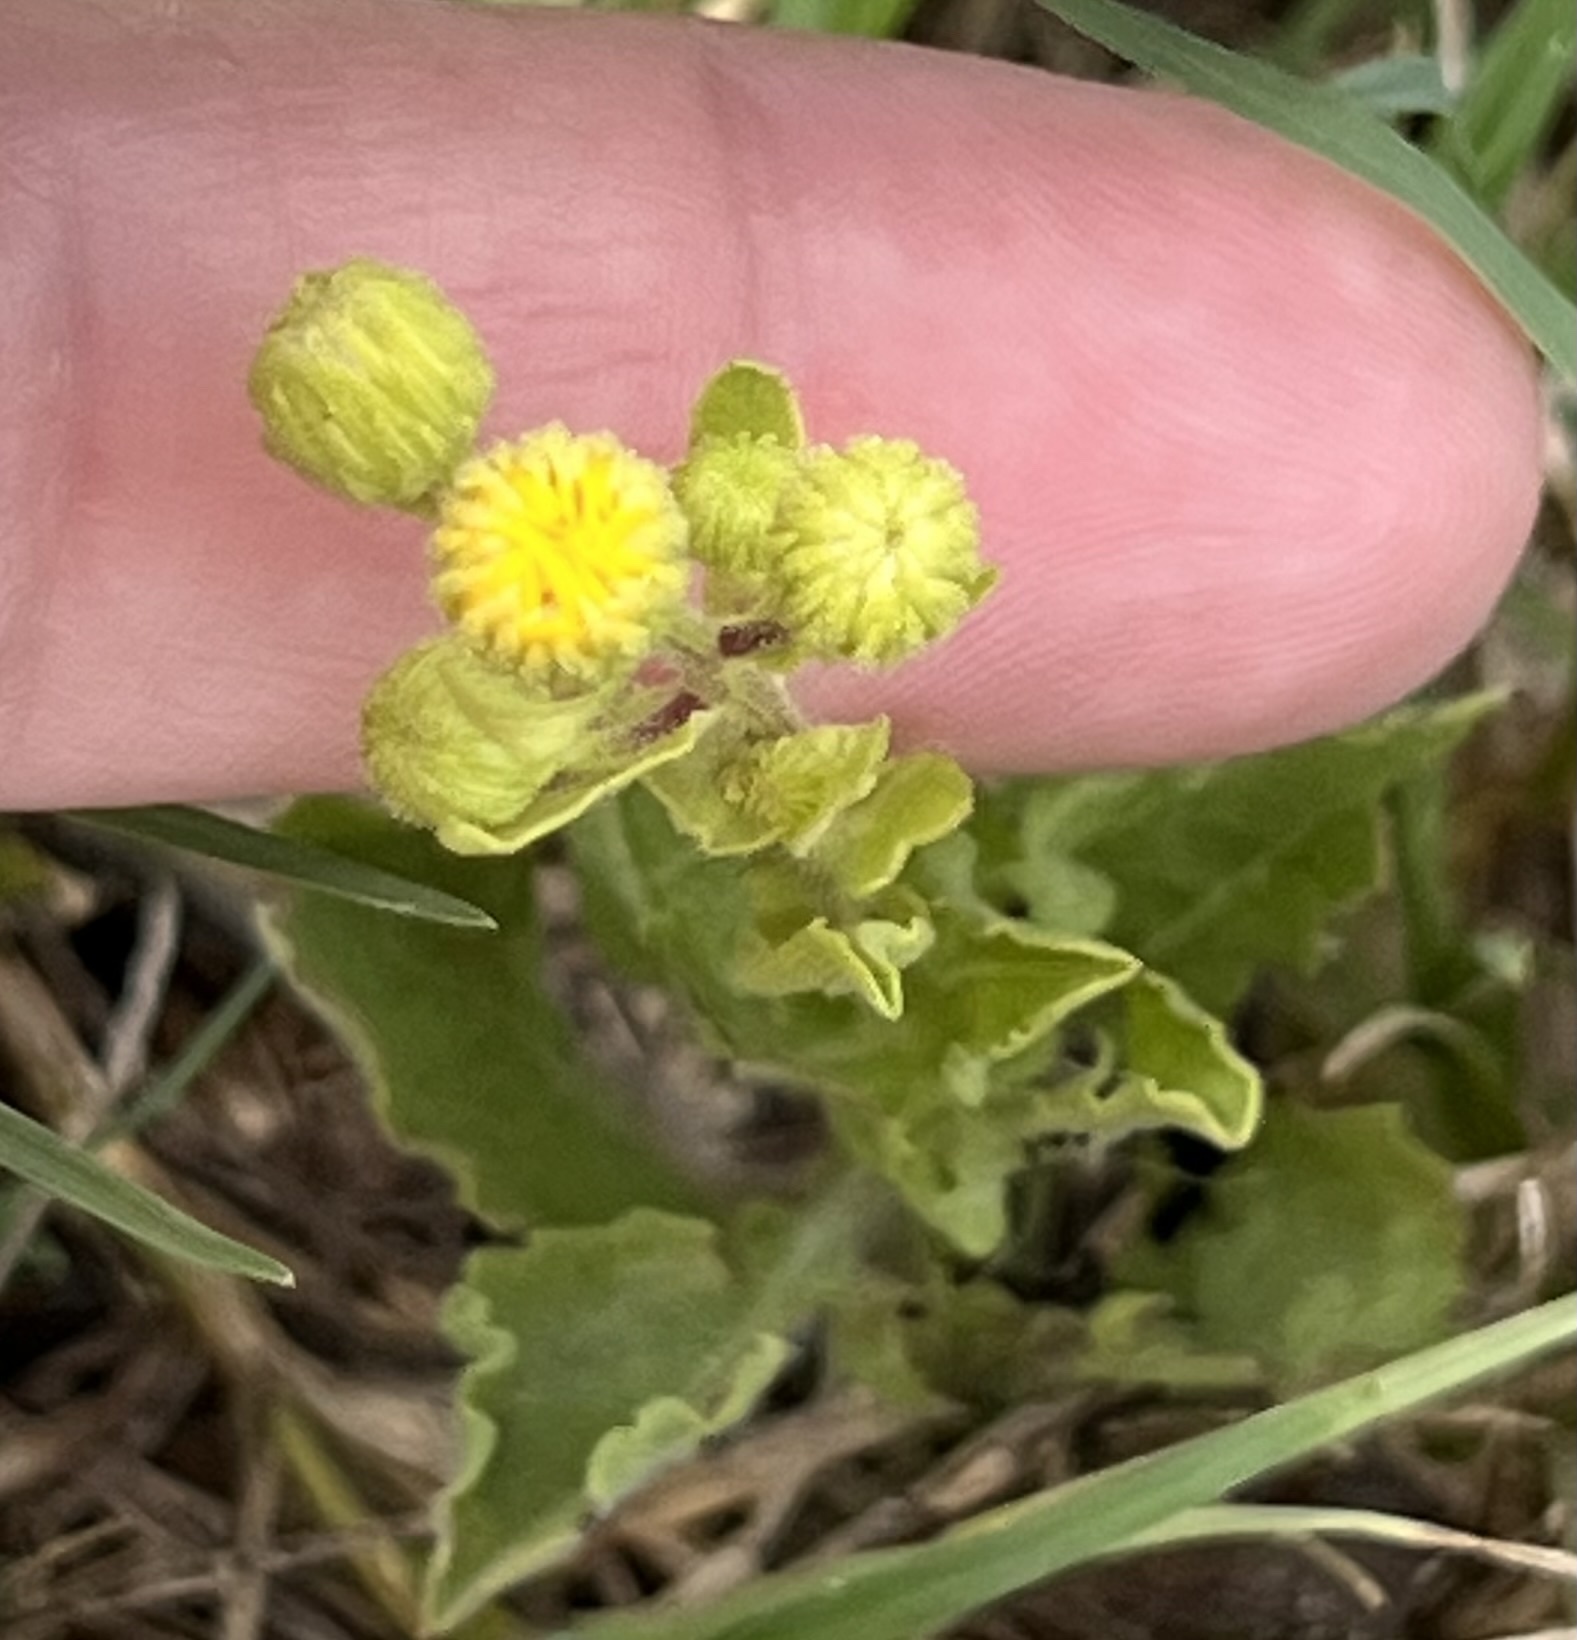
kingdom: Plantae
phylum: Tracheophyta
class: Magnoliopsida
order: Asterales
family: Asteraceae
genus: Heterotheca
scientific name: Heterotheca subaxillaris
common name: Camphorweed
